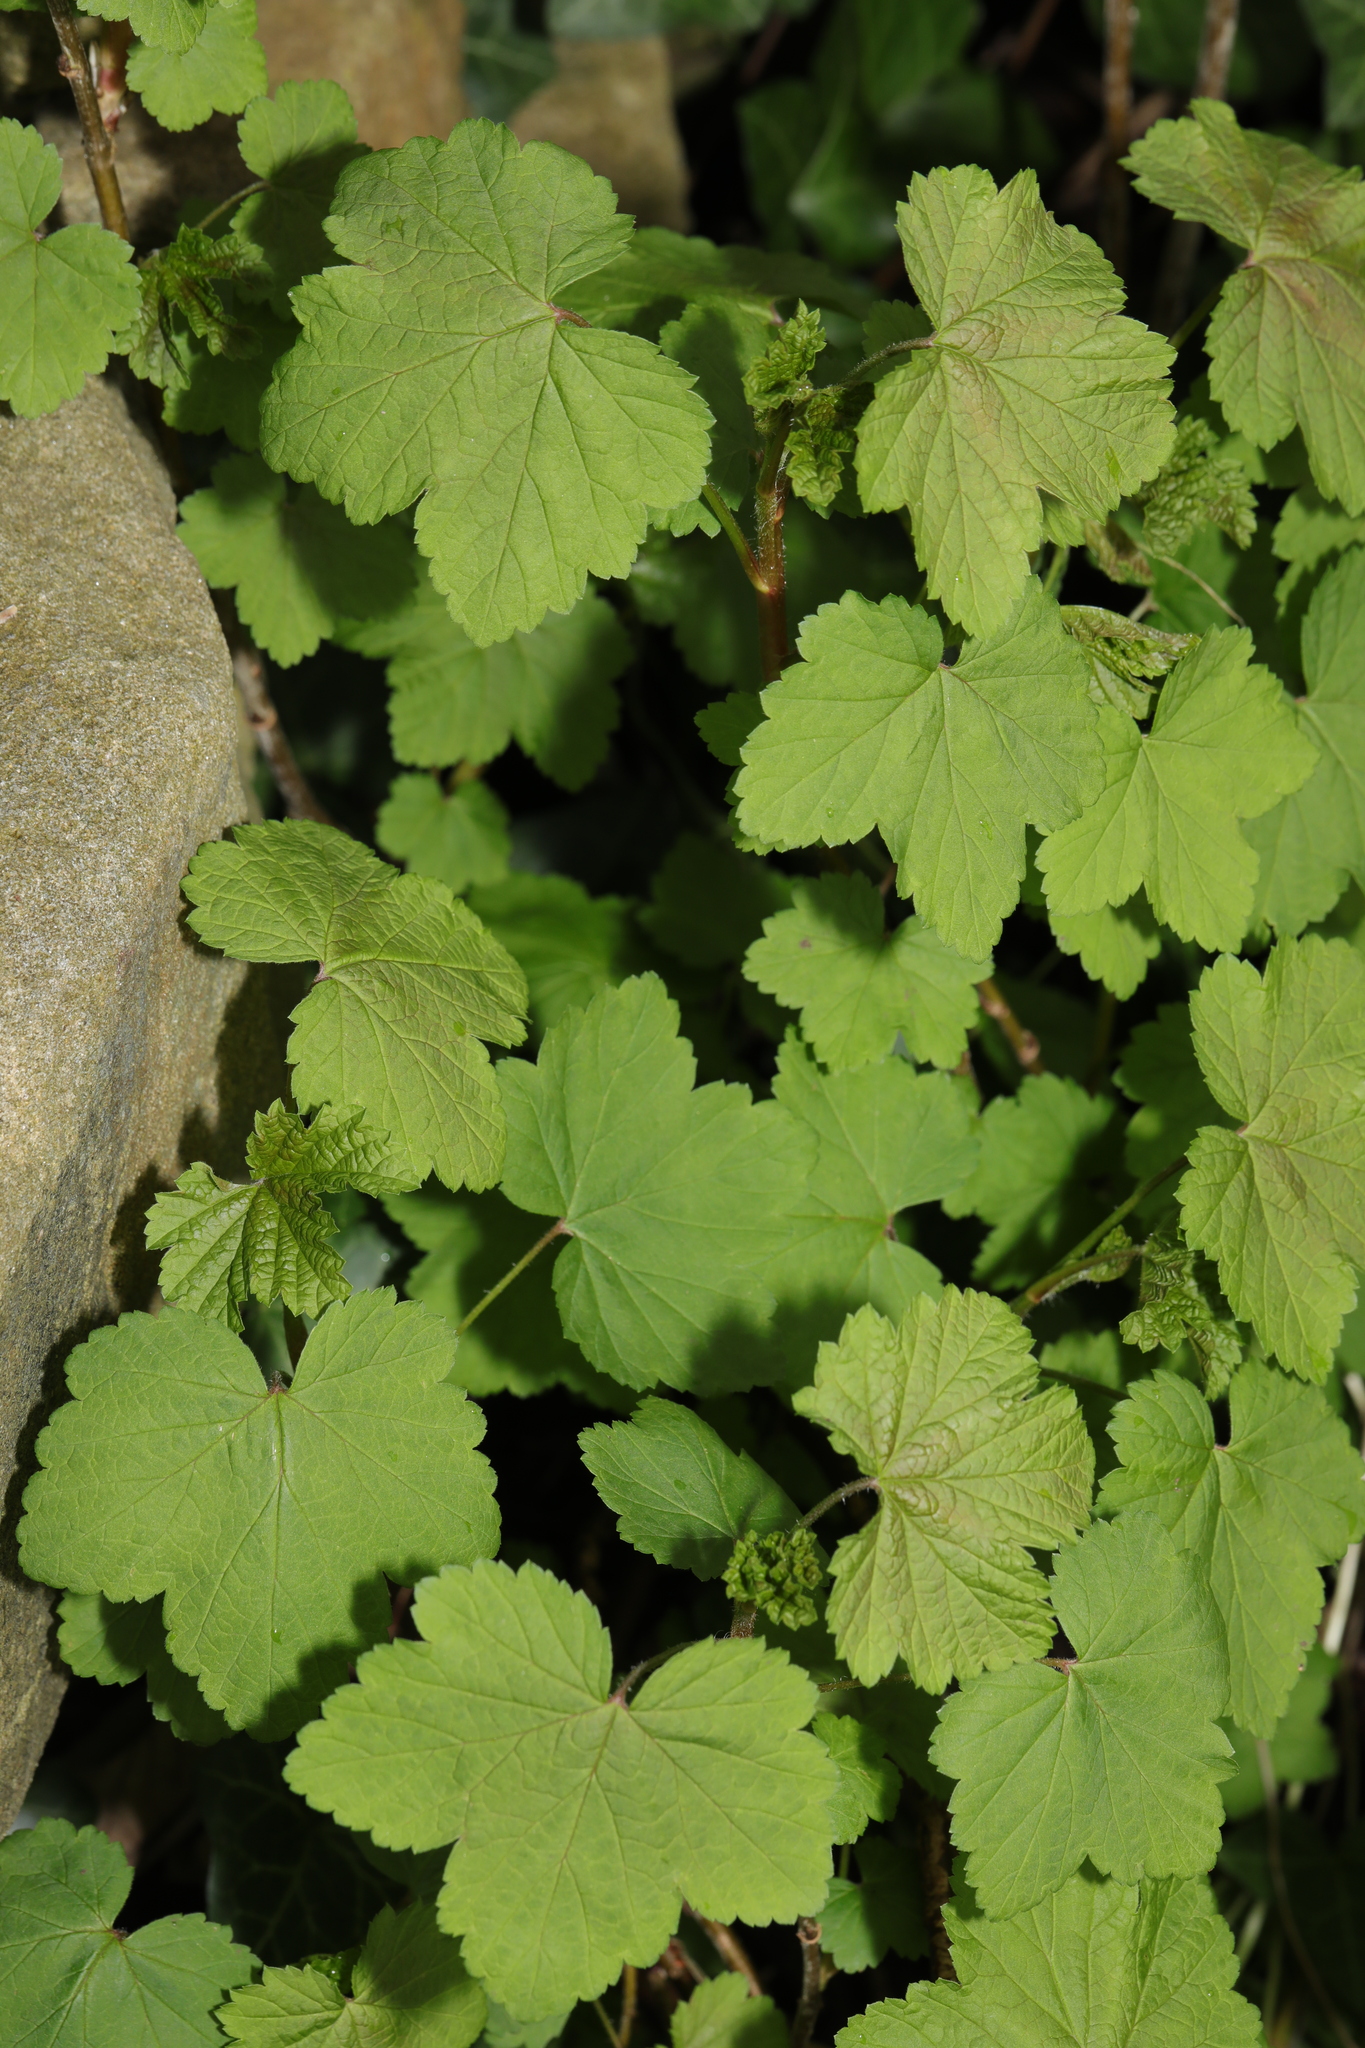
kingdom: Plantae
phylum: Tracheophyta
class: Magnoliopsida
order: Saxifragales
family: Grossulariaceae
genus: Ribes
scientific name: Ribes rubrum
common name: Red currant
